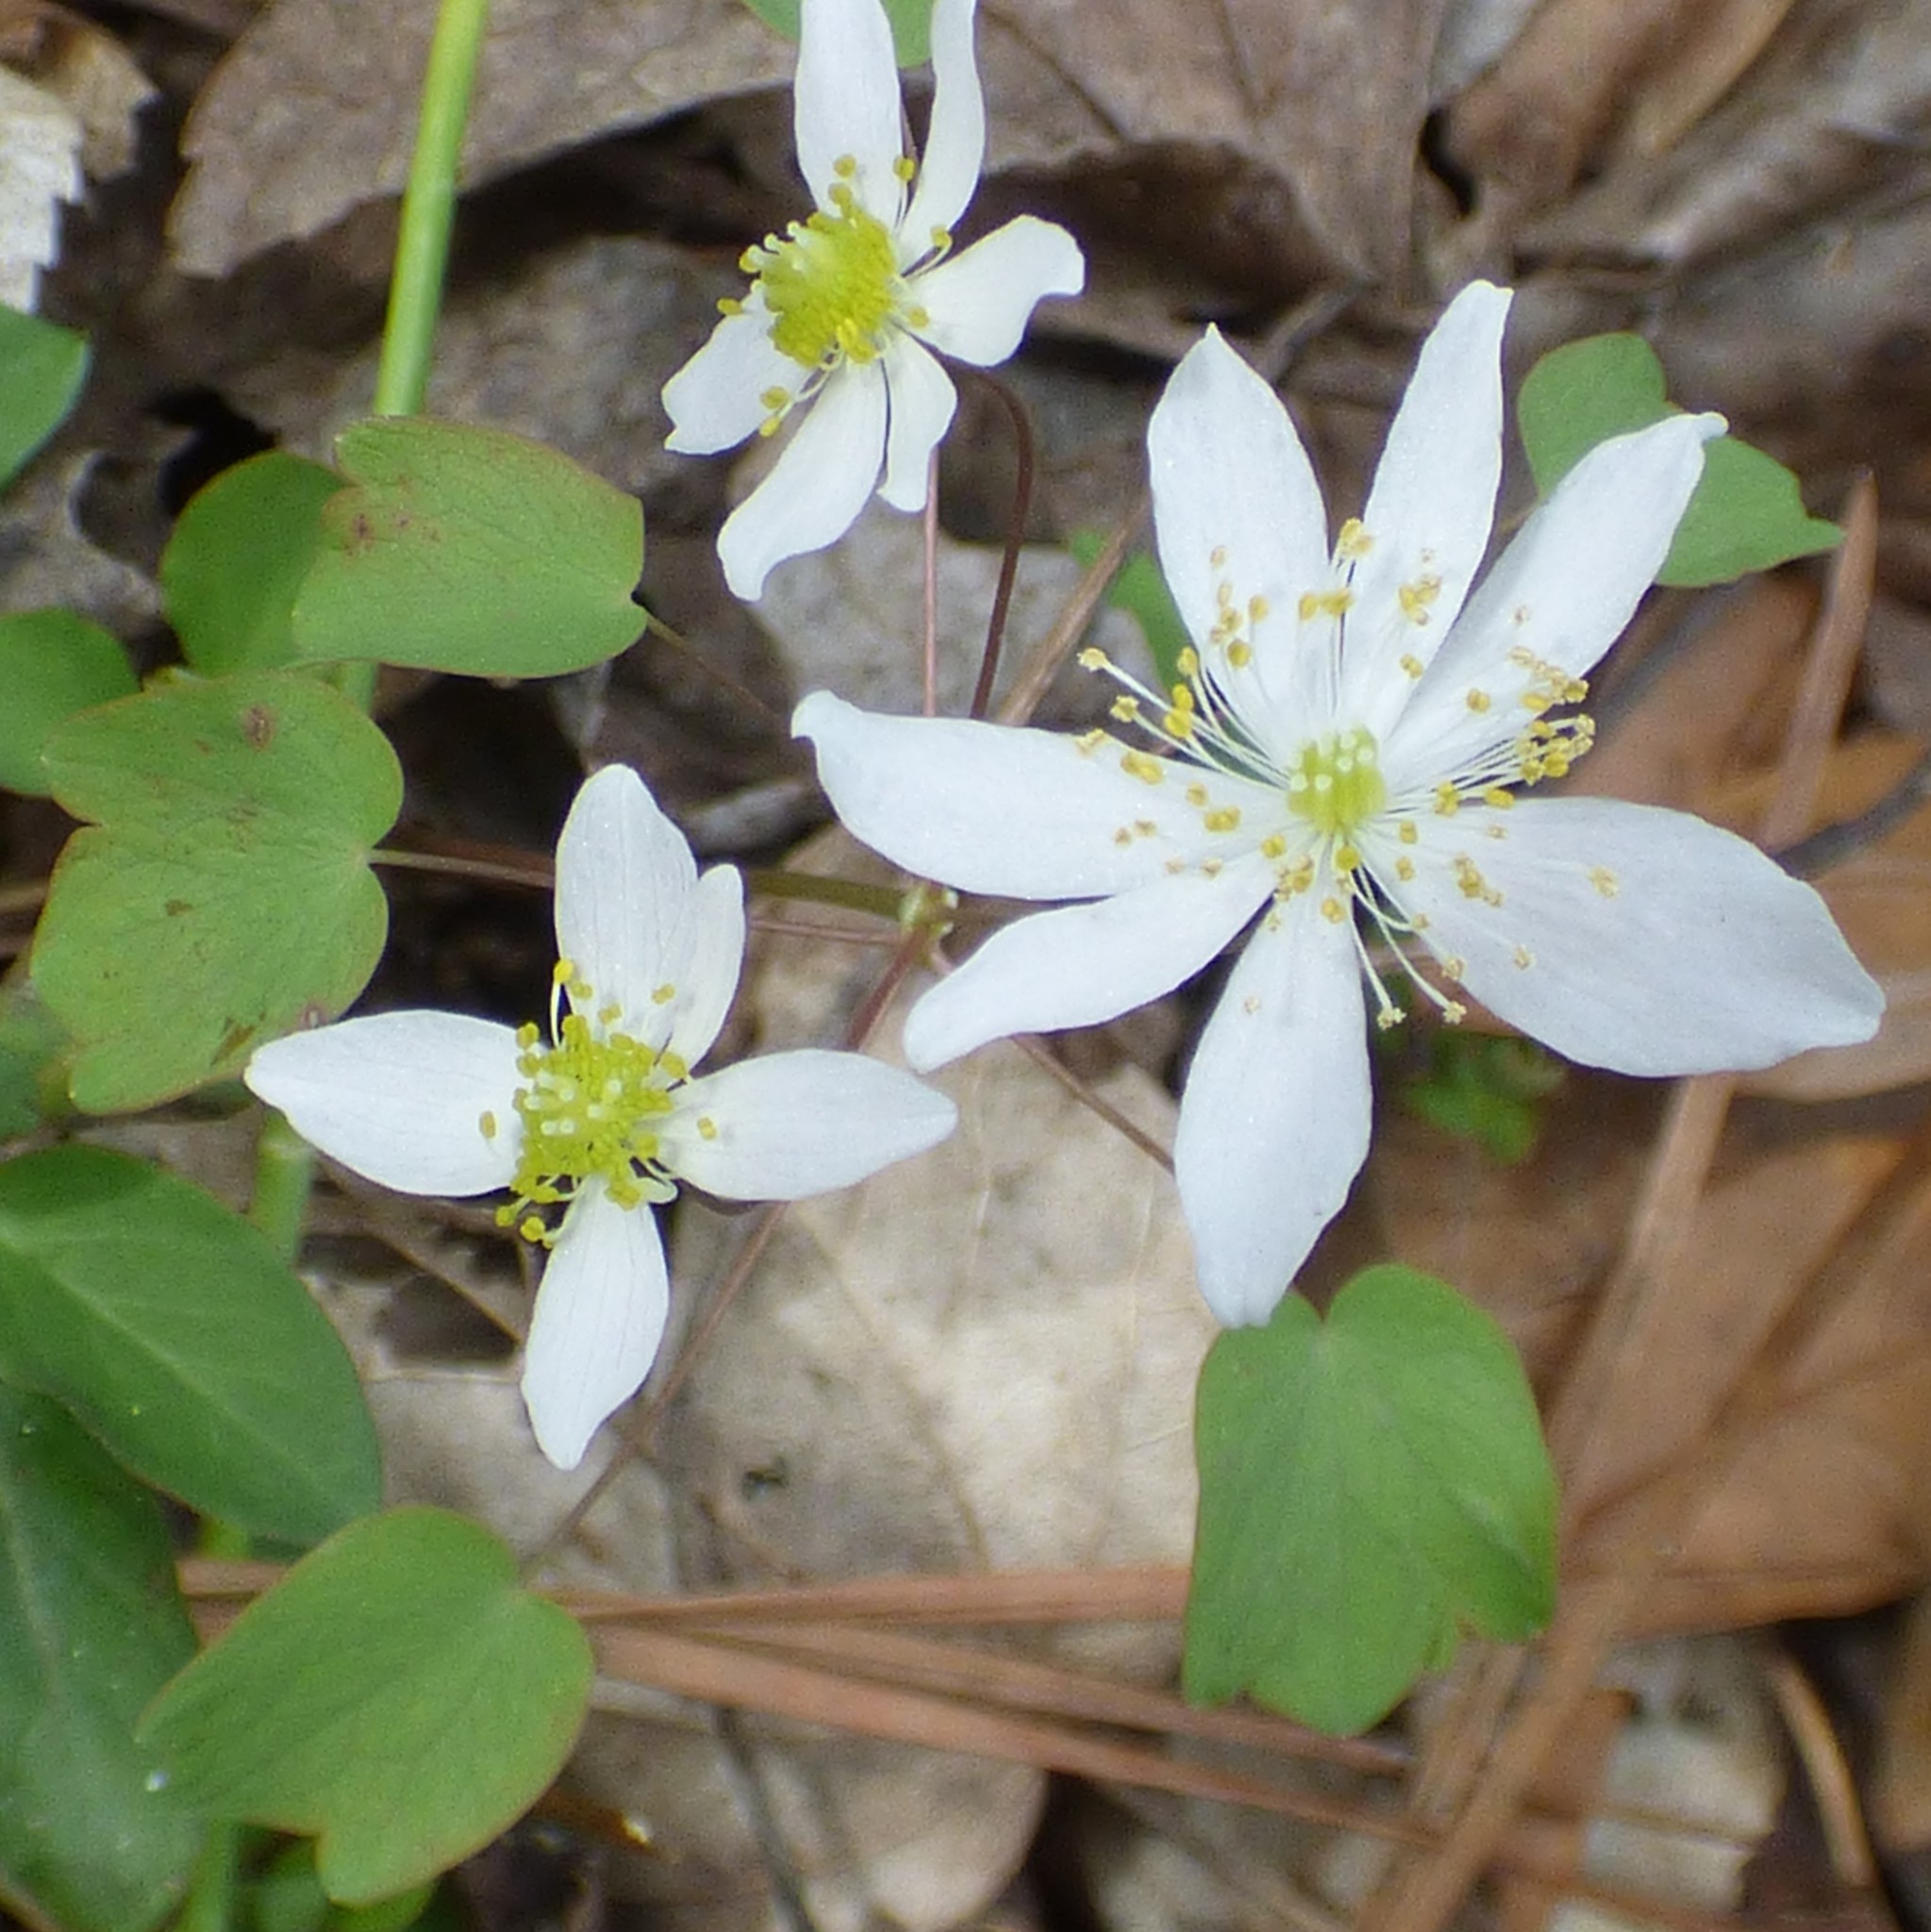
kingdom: Plantae
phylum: Tracheophyta
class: Magnoliopsida
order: Ranunculales
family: Ranunculaceae
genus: Thalictrum
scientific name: Thalictrum thalictroides
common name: Rue-anemone
